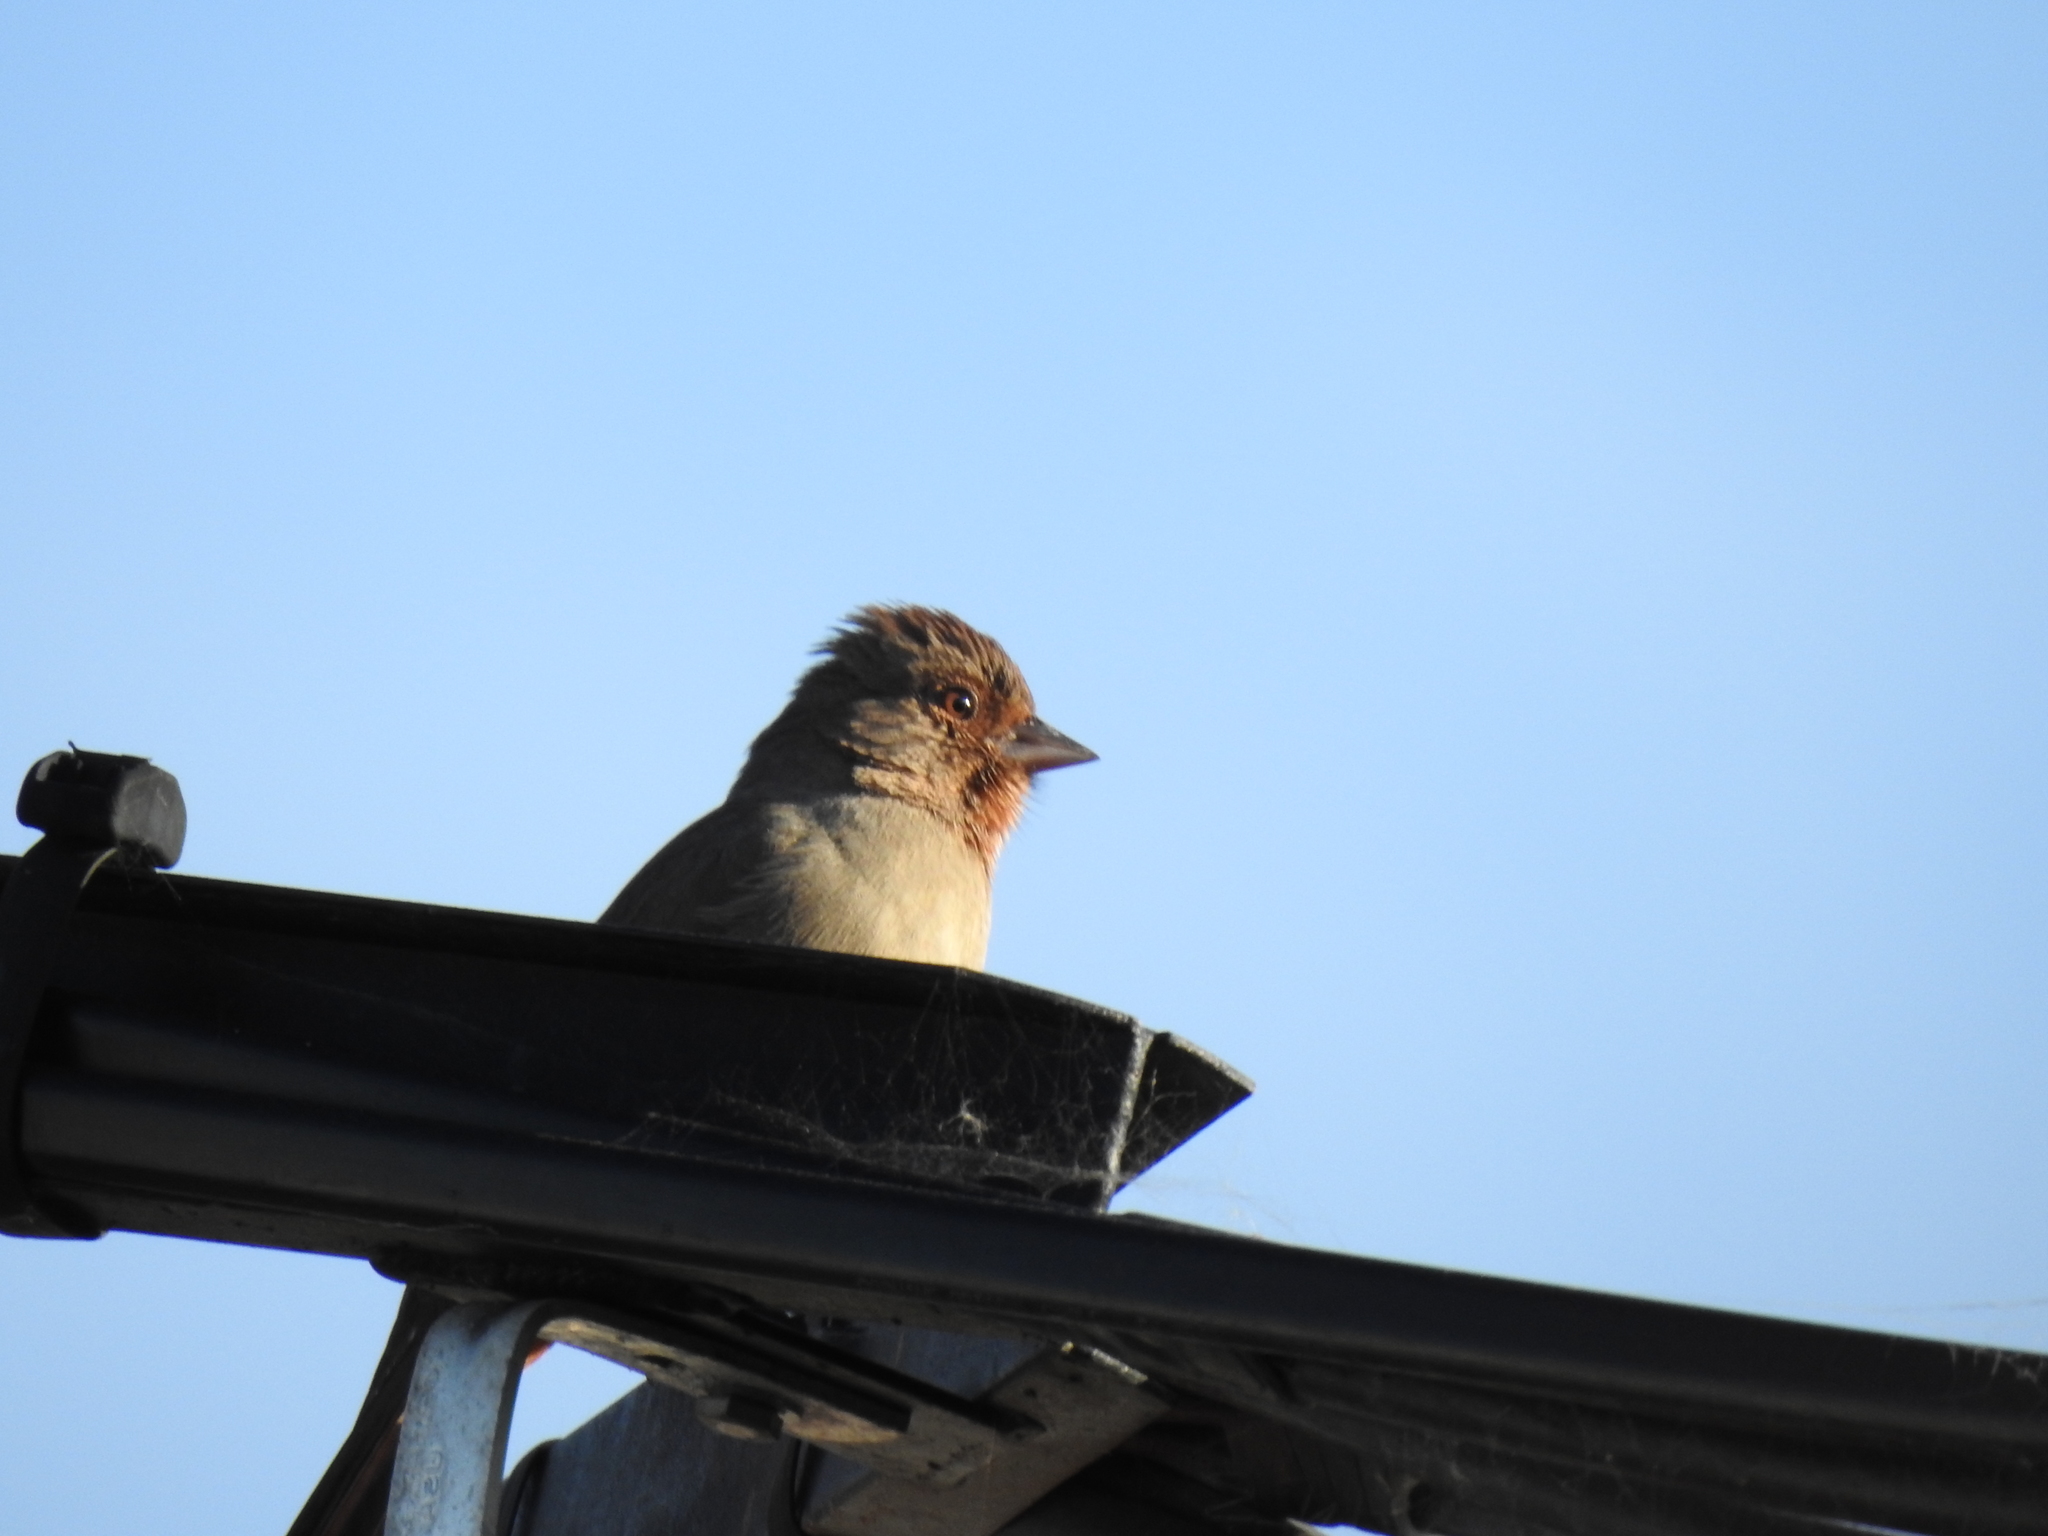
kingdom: Animalia
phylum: Chordata
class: Aves
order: Passeriformes
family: Passerellidae
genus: Melozone
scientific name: Melozone crissalis
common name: California towhee
